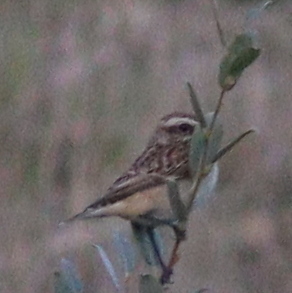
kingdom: Animalia
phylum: Chordata
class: Aves
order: Passeriformes
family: Muscicapidae
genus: Saxicola
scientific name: Saxicola rubetra
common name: Whinchat
